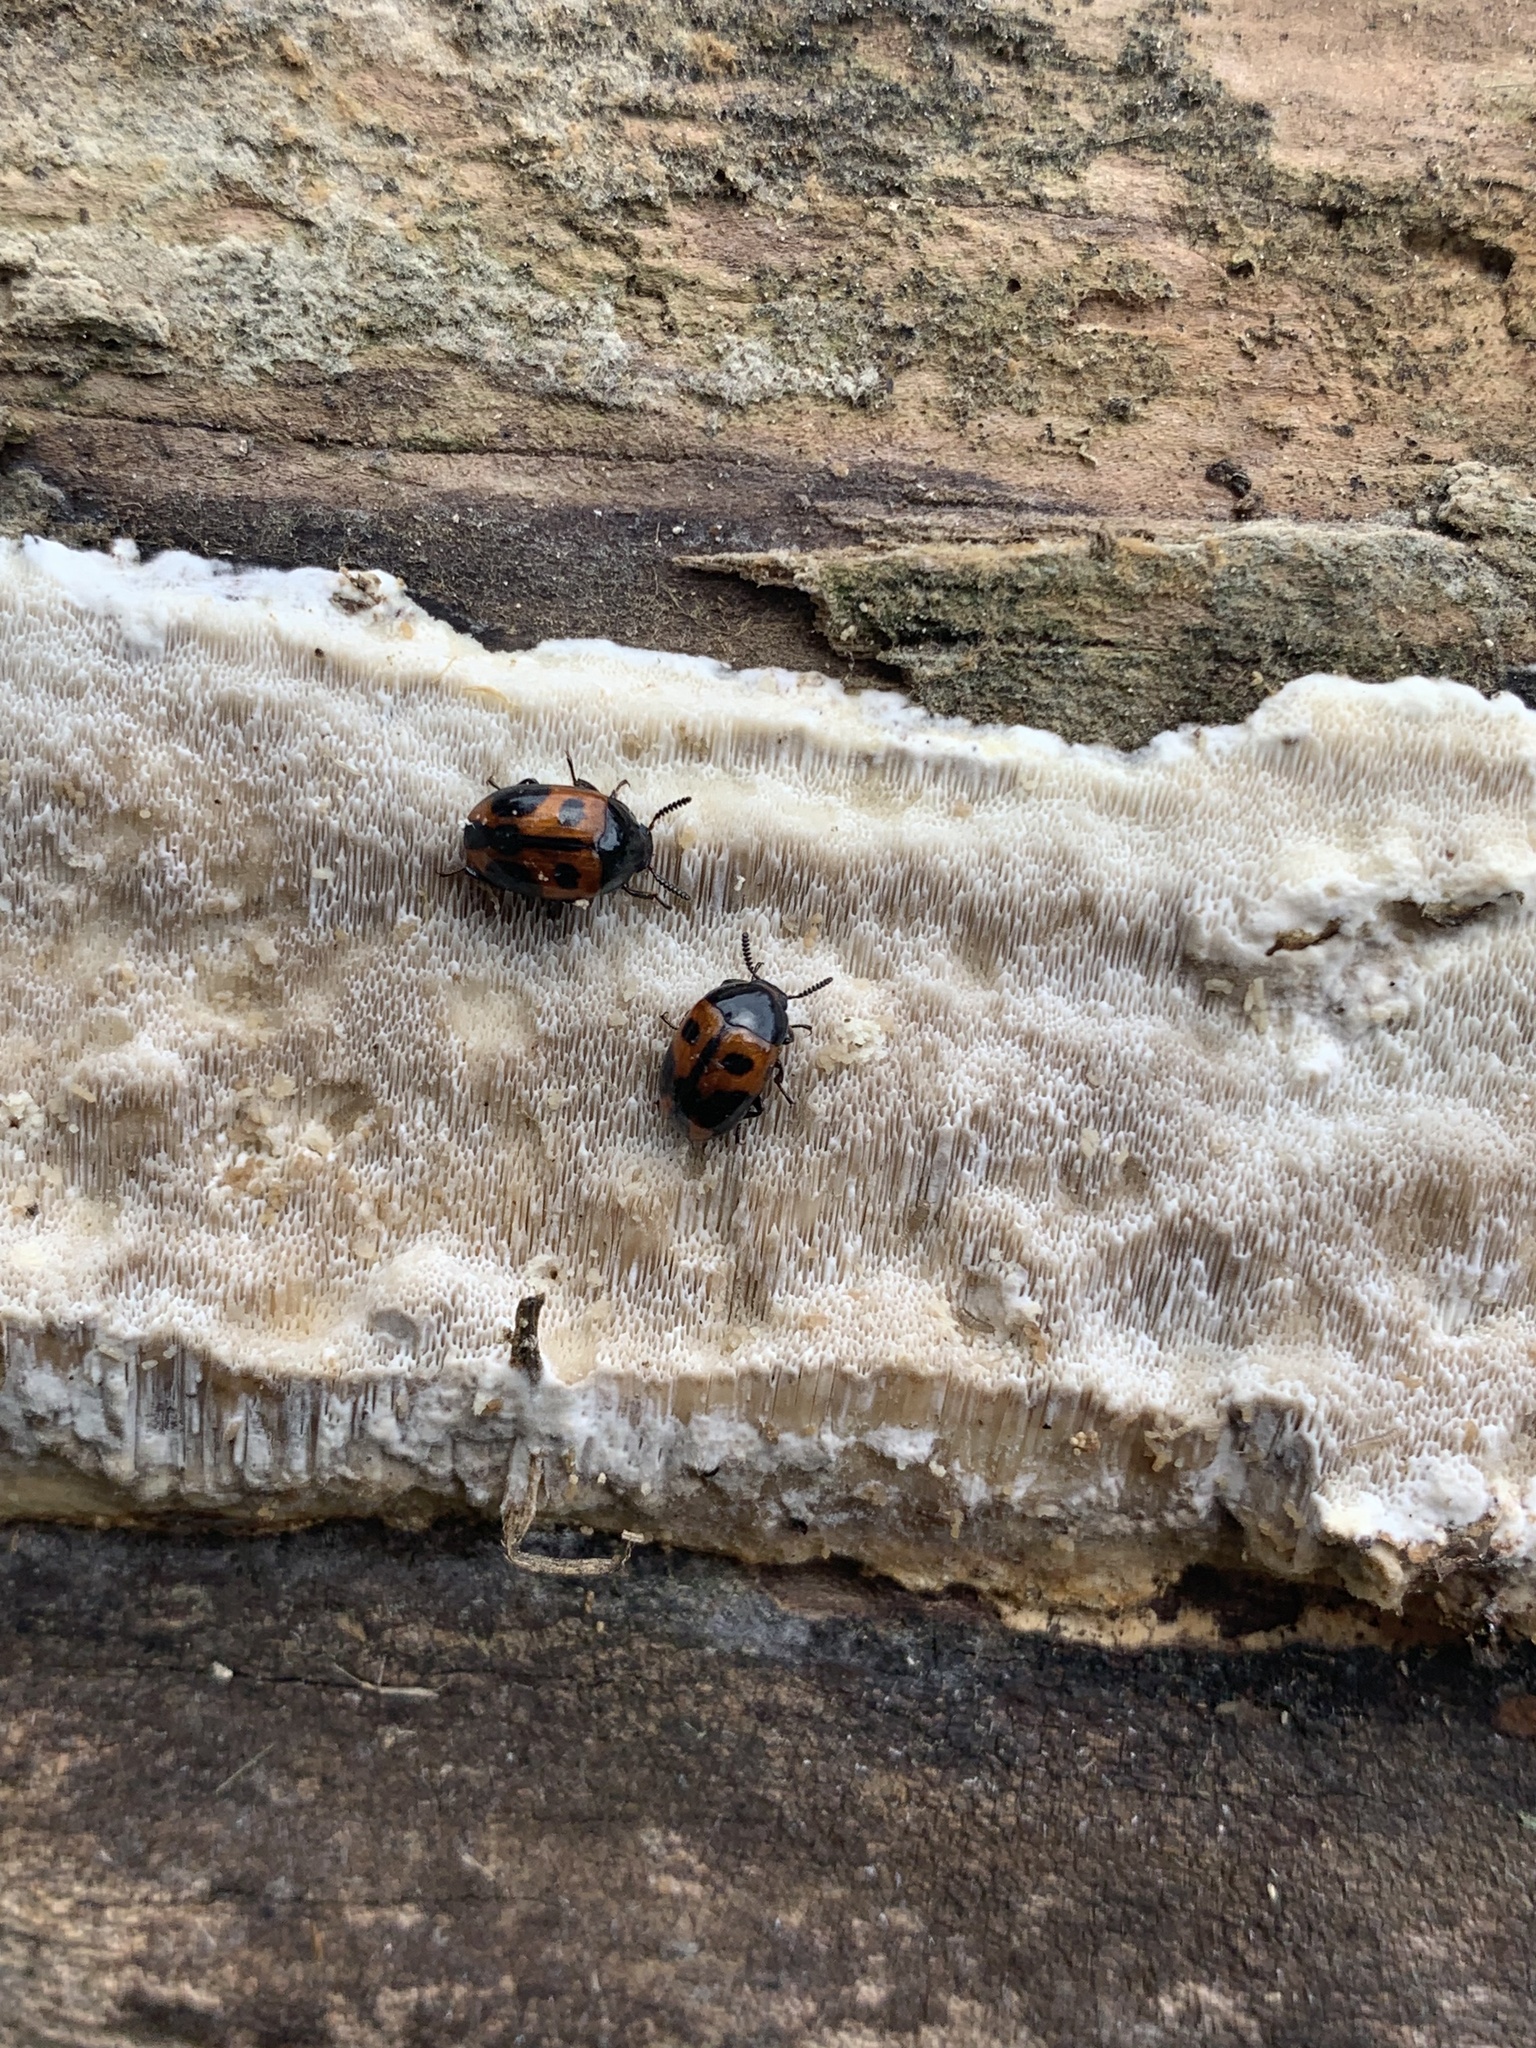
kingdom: Animalia
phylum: Arthropoda
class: Insecta
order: Coleoptera
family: Tenebrionidae
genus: Diaperis
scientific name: Diaperis maculata
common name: Darkling beetle
